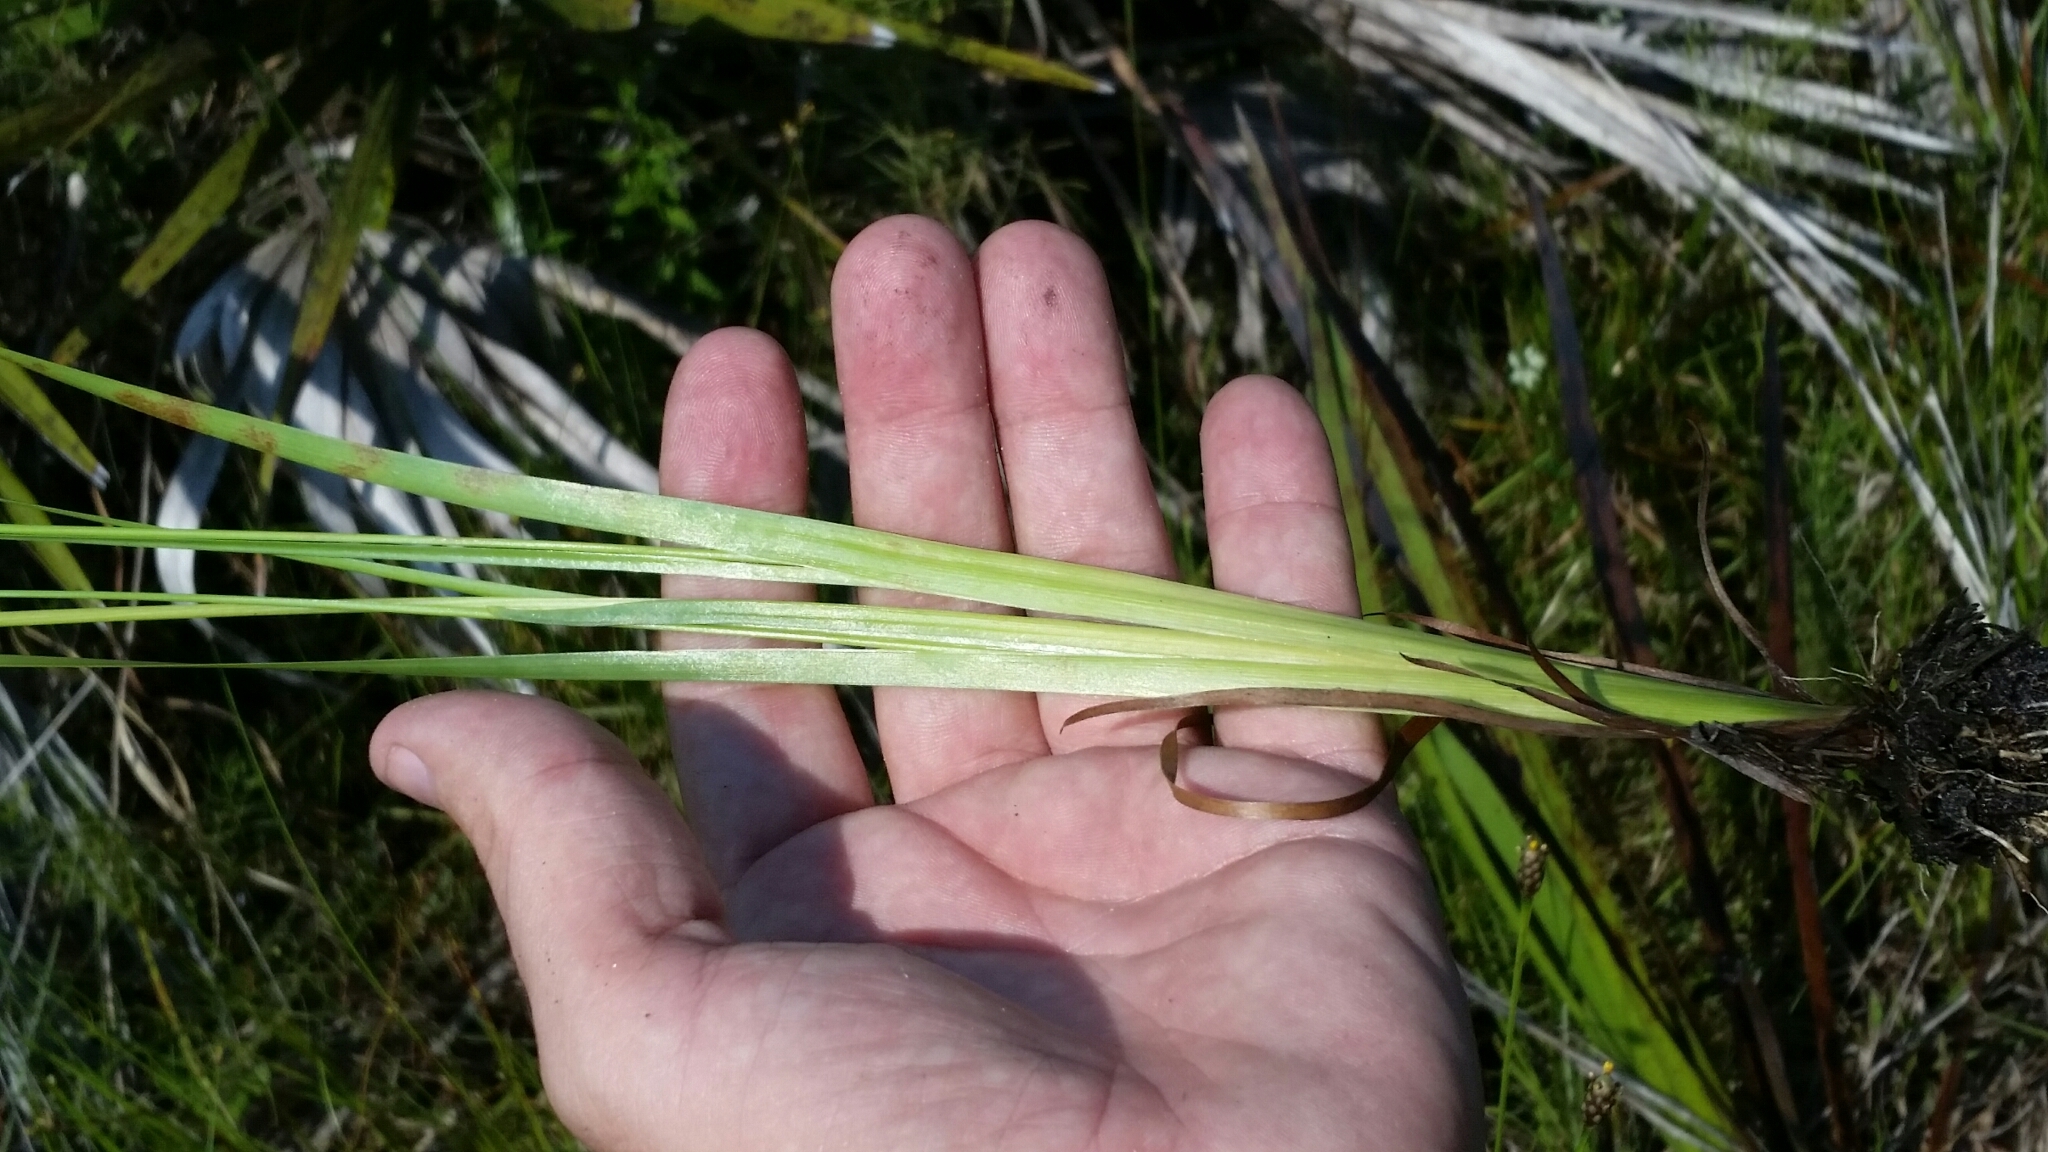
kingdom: Plantae
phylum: Tracheophyta
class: Liliopsida
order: Poales
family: Xyridaceae
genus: Xyris
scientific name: Xyris jupicai
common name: Richard's yelloweyed grass
